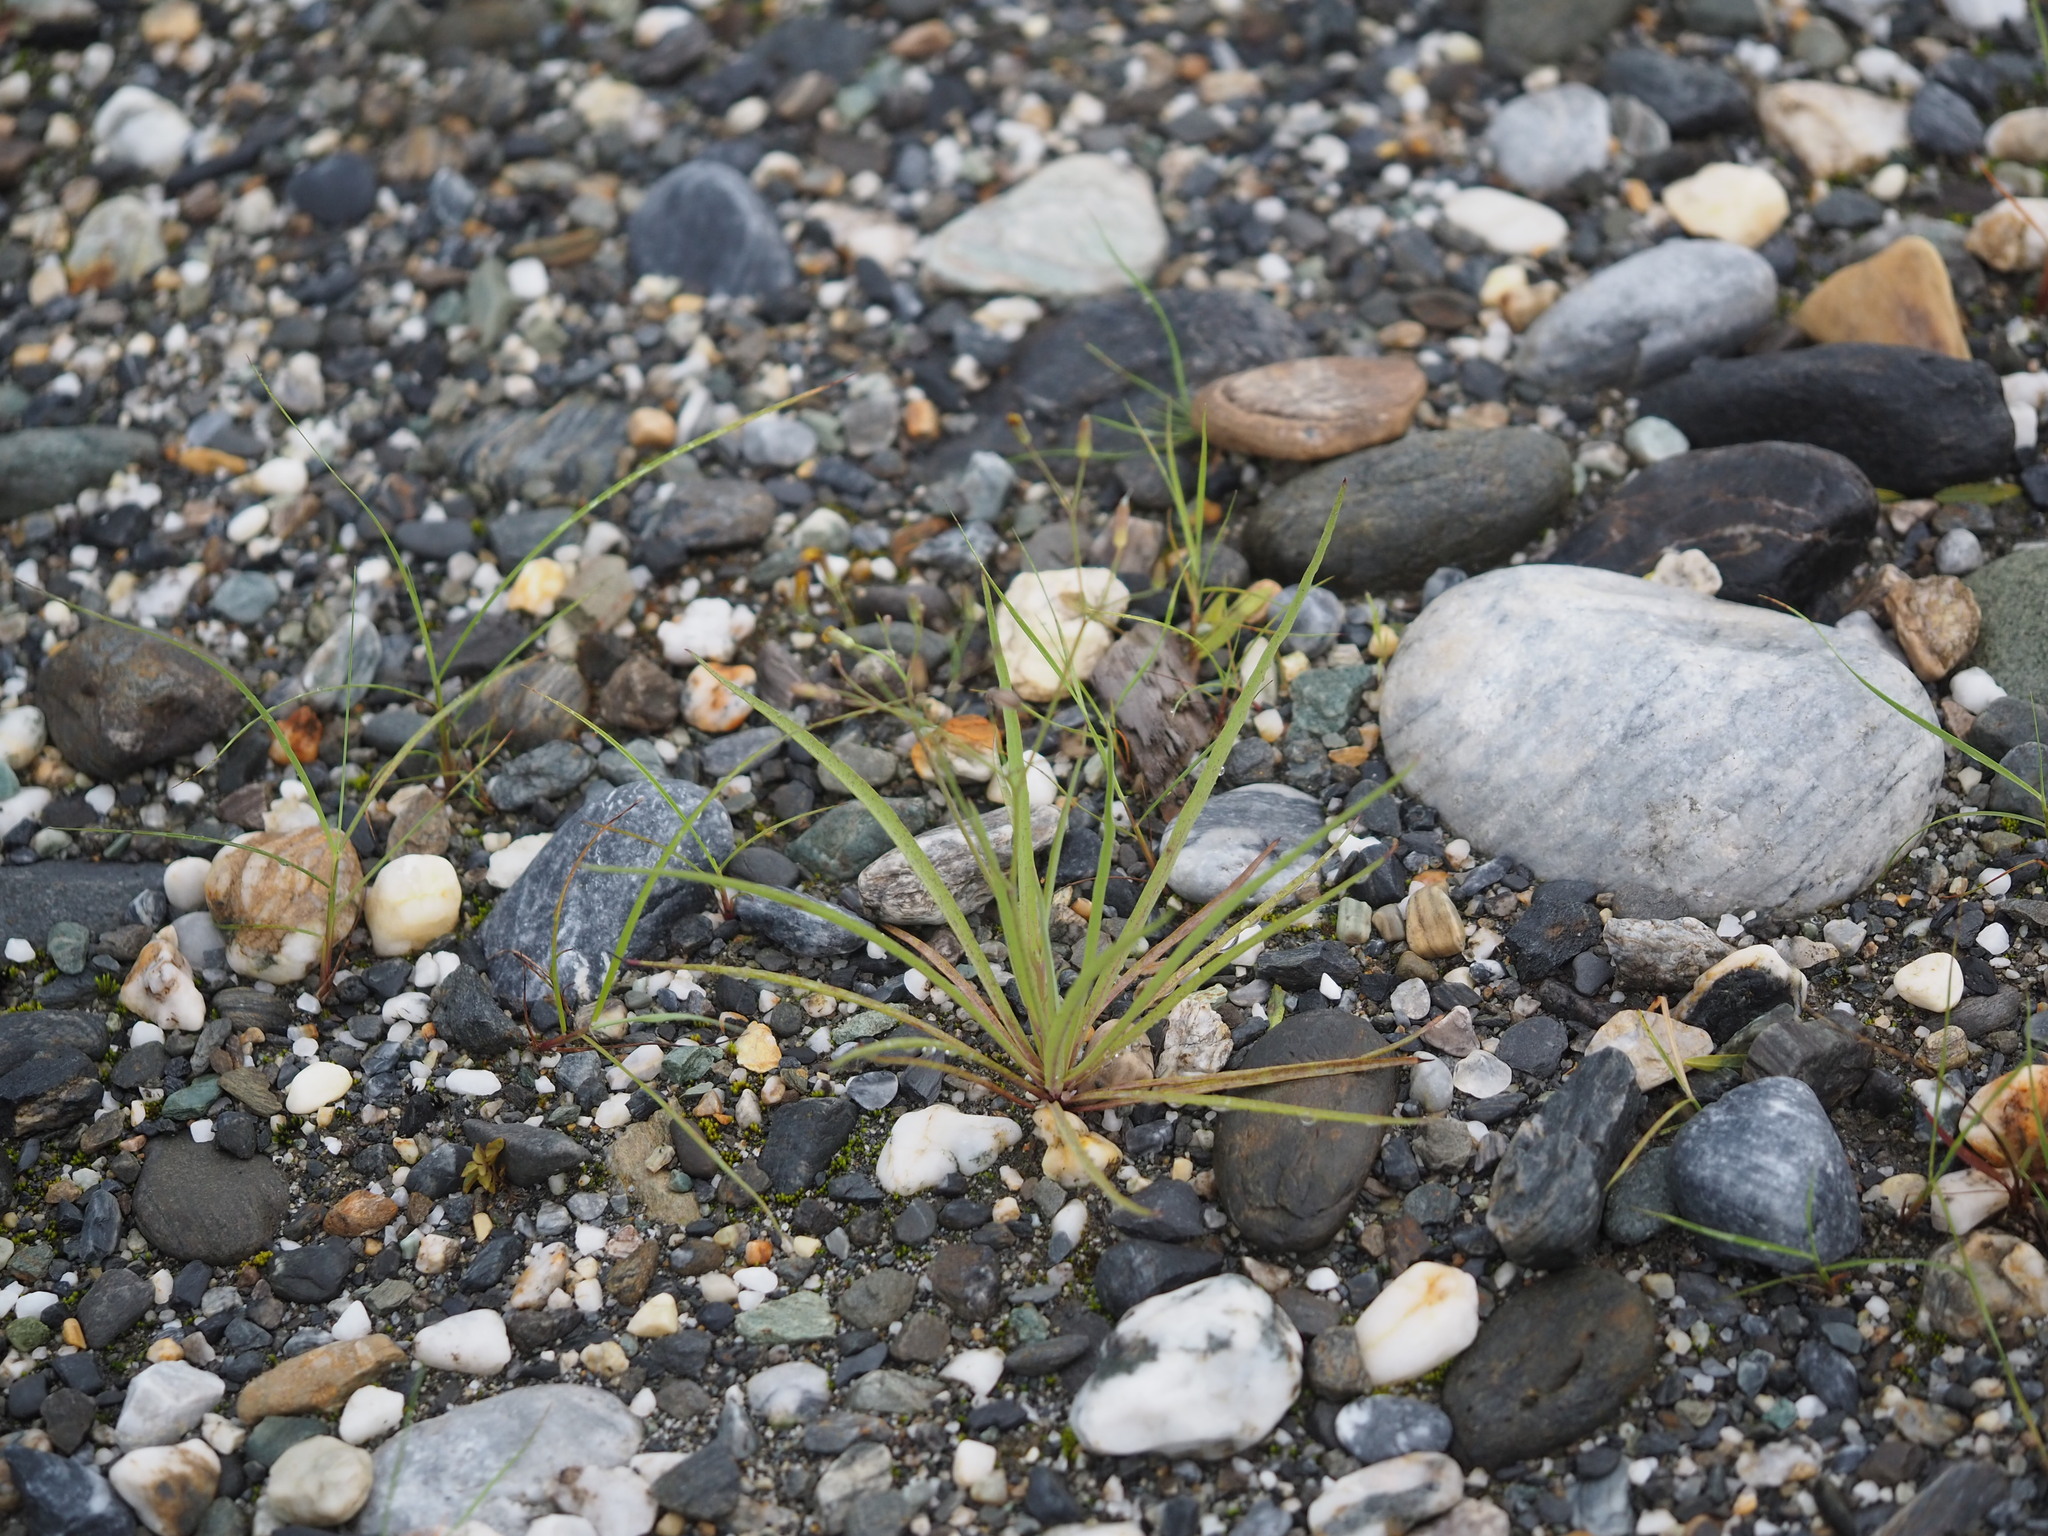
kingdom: Plantae
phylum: Tracheophyta
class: Magnoliopsida
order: Asterales
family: Asteraceae
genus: Ixeris
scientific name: Ixeris tamagawaensis
